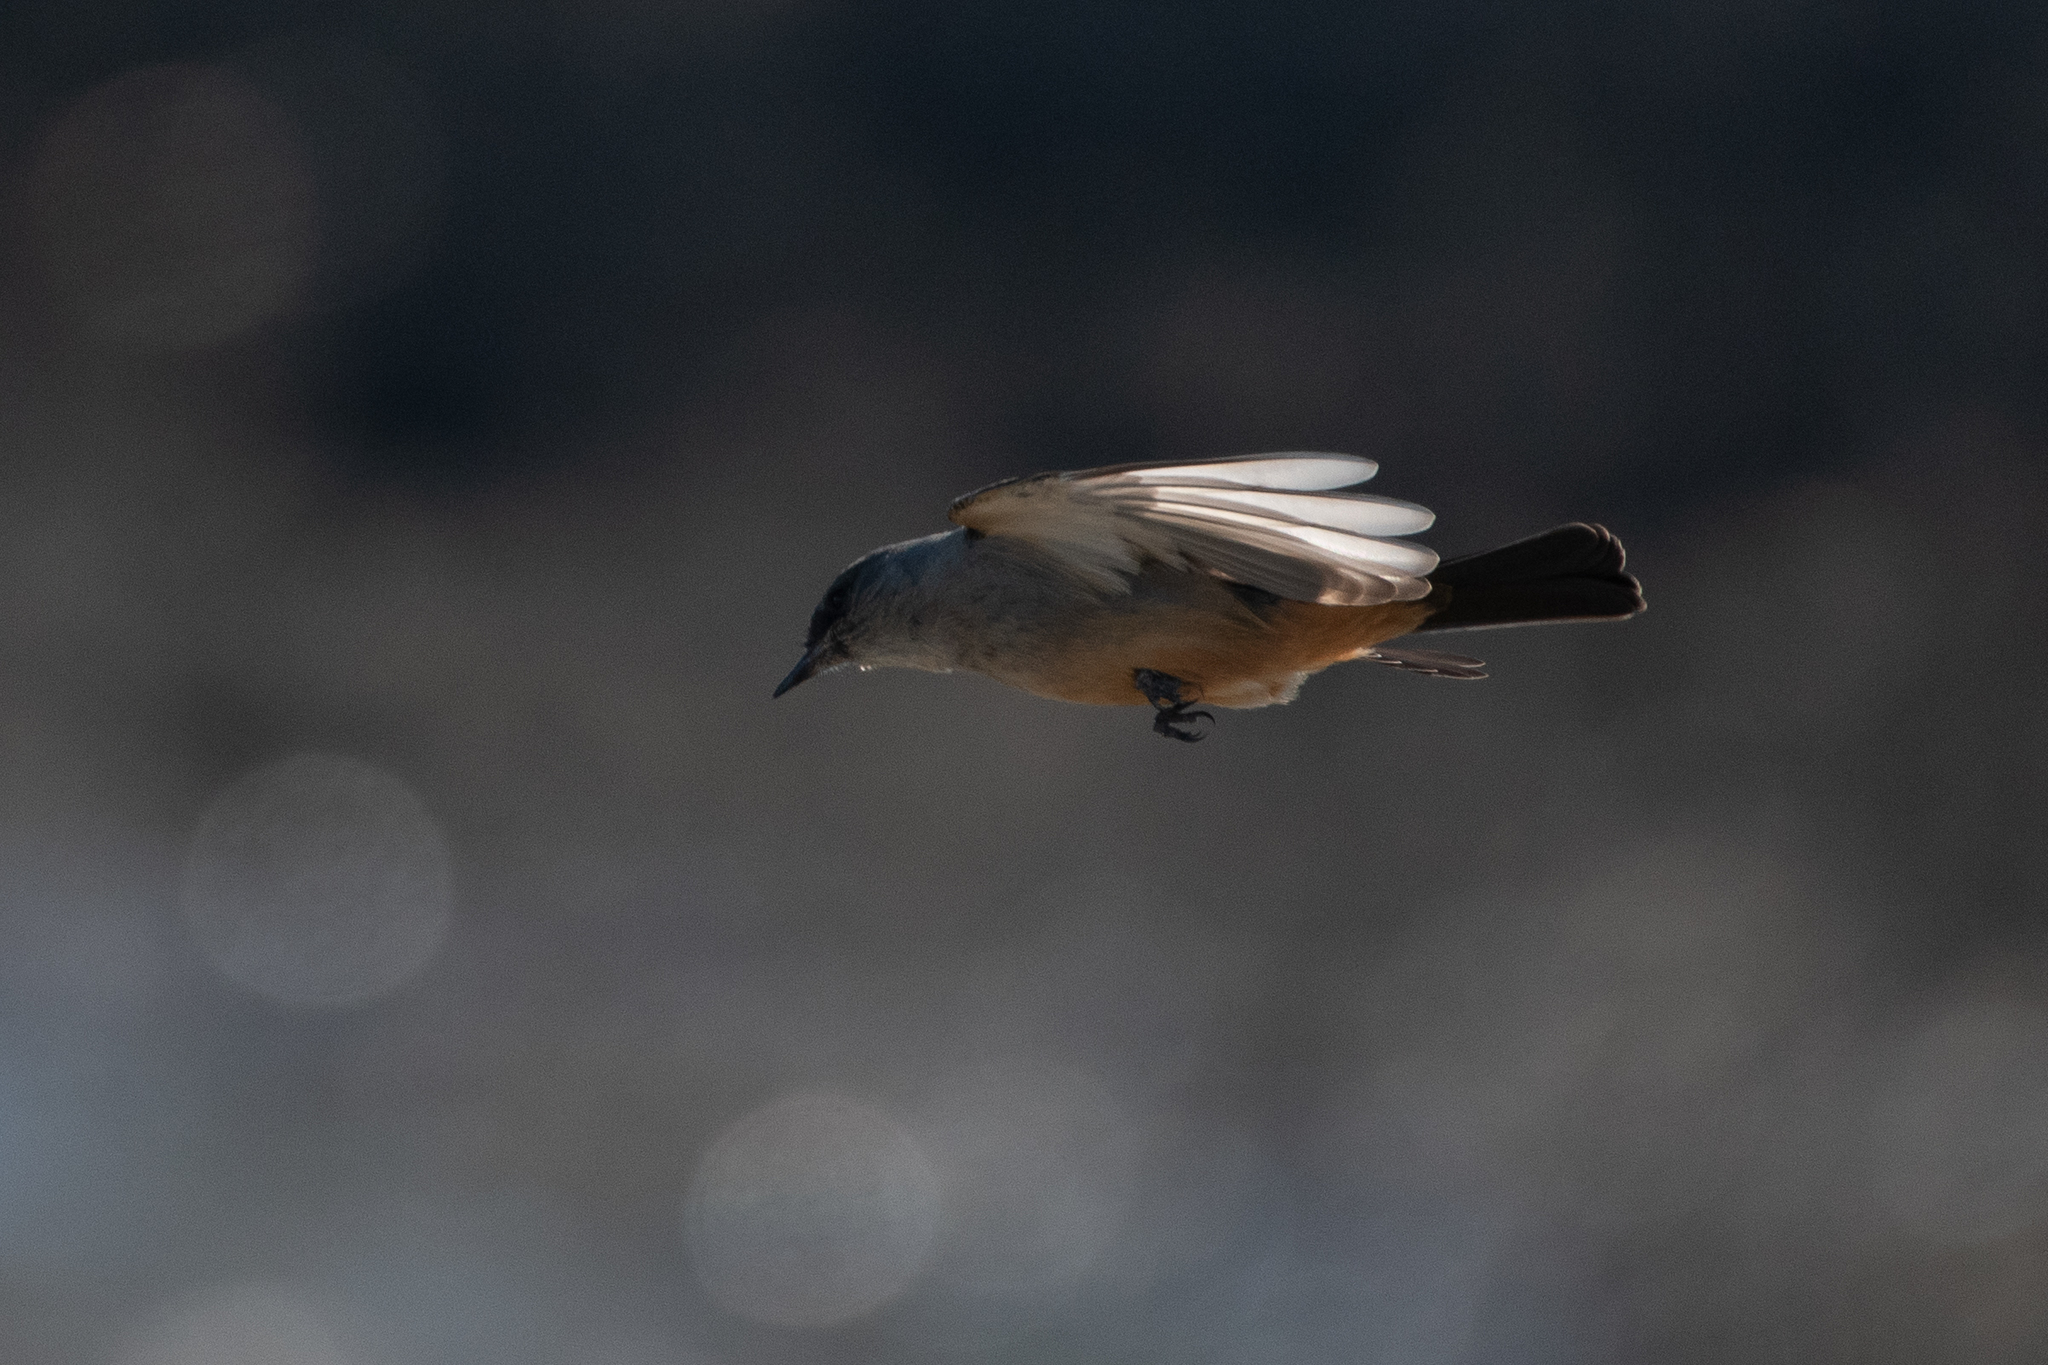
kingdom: Animalia
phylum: Chordata
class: Aves
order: Passeriformes
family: Tyrannidae
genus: Sayornis
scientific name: Sayornis saya
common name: Say's phoebe
